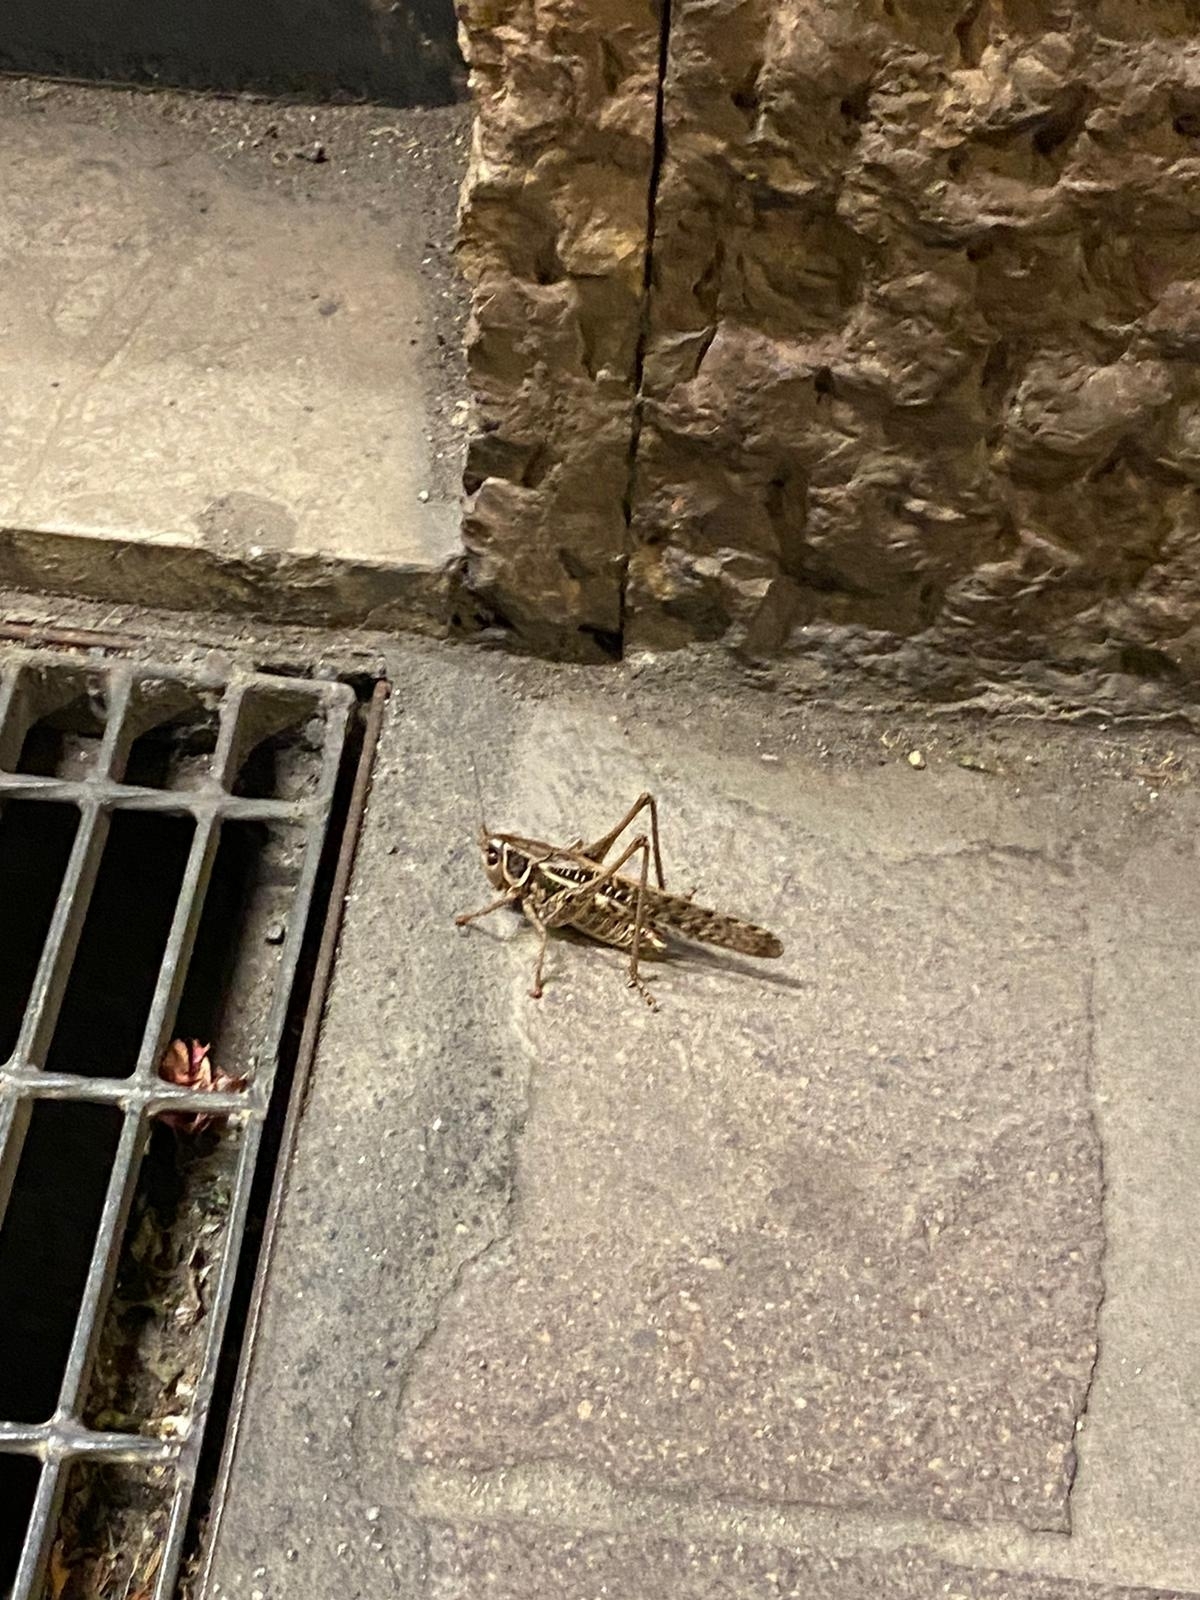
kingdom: Animalia
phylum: Arthropoda
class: Insecta
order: Orthoptera
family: Tettigoniidae
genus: Decticus
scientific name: Decticus albifrons
